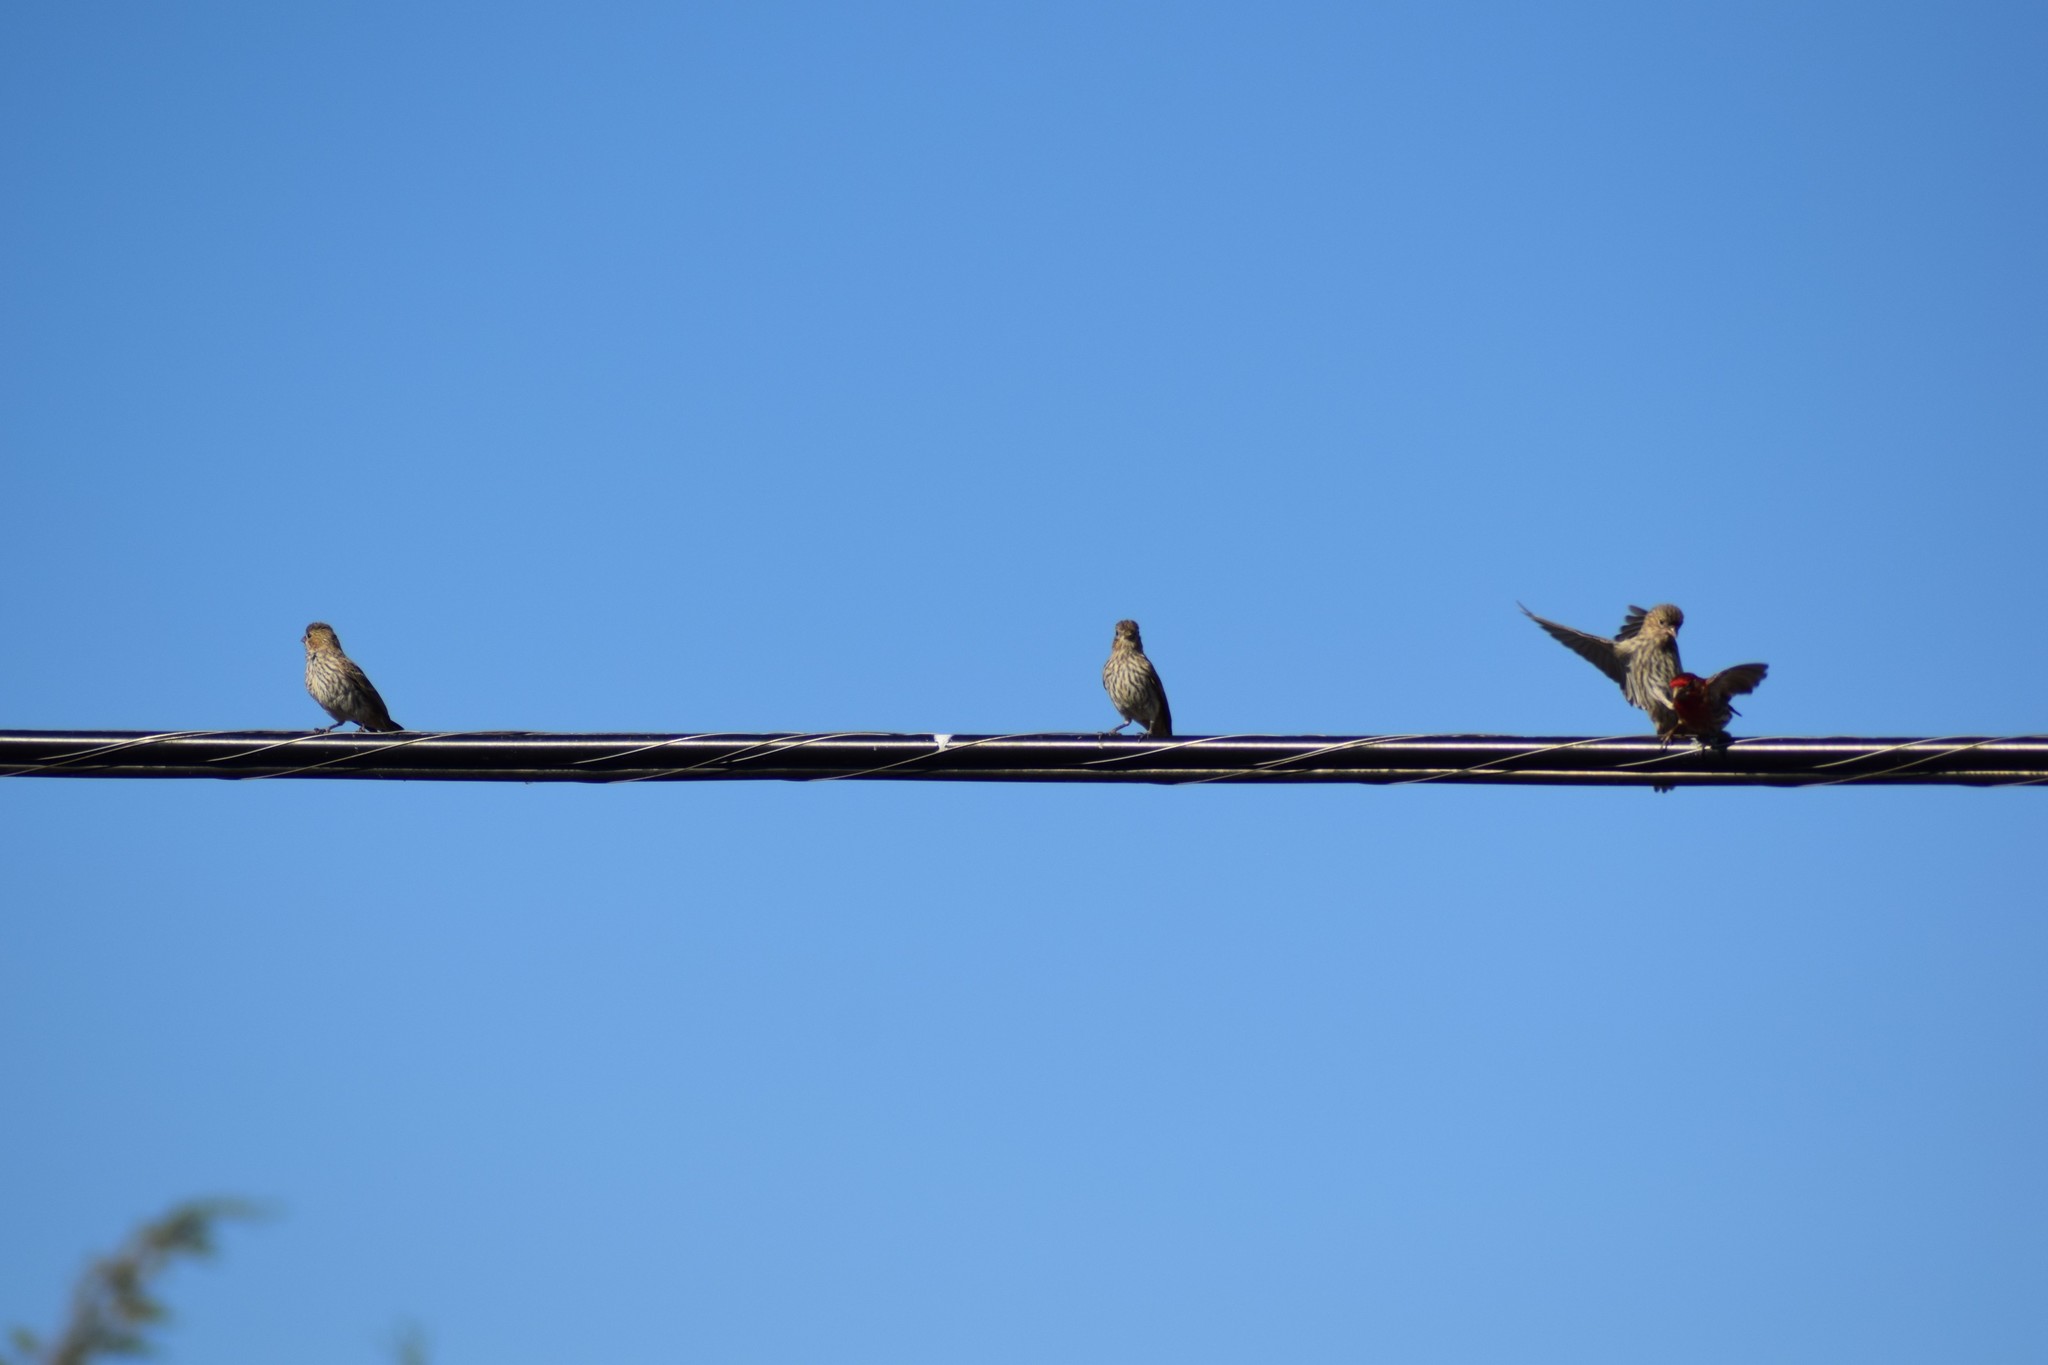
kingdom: Animalia
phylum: Chordata
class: Aves
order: Passeriformes
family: Fringillidae
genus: Haemorhous
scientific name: Haemorhous mexicanus
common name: House finch
